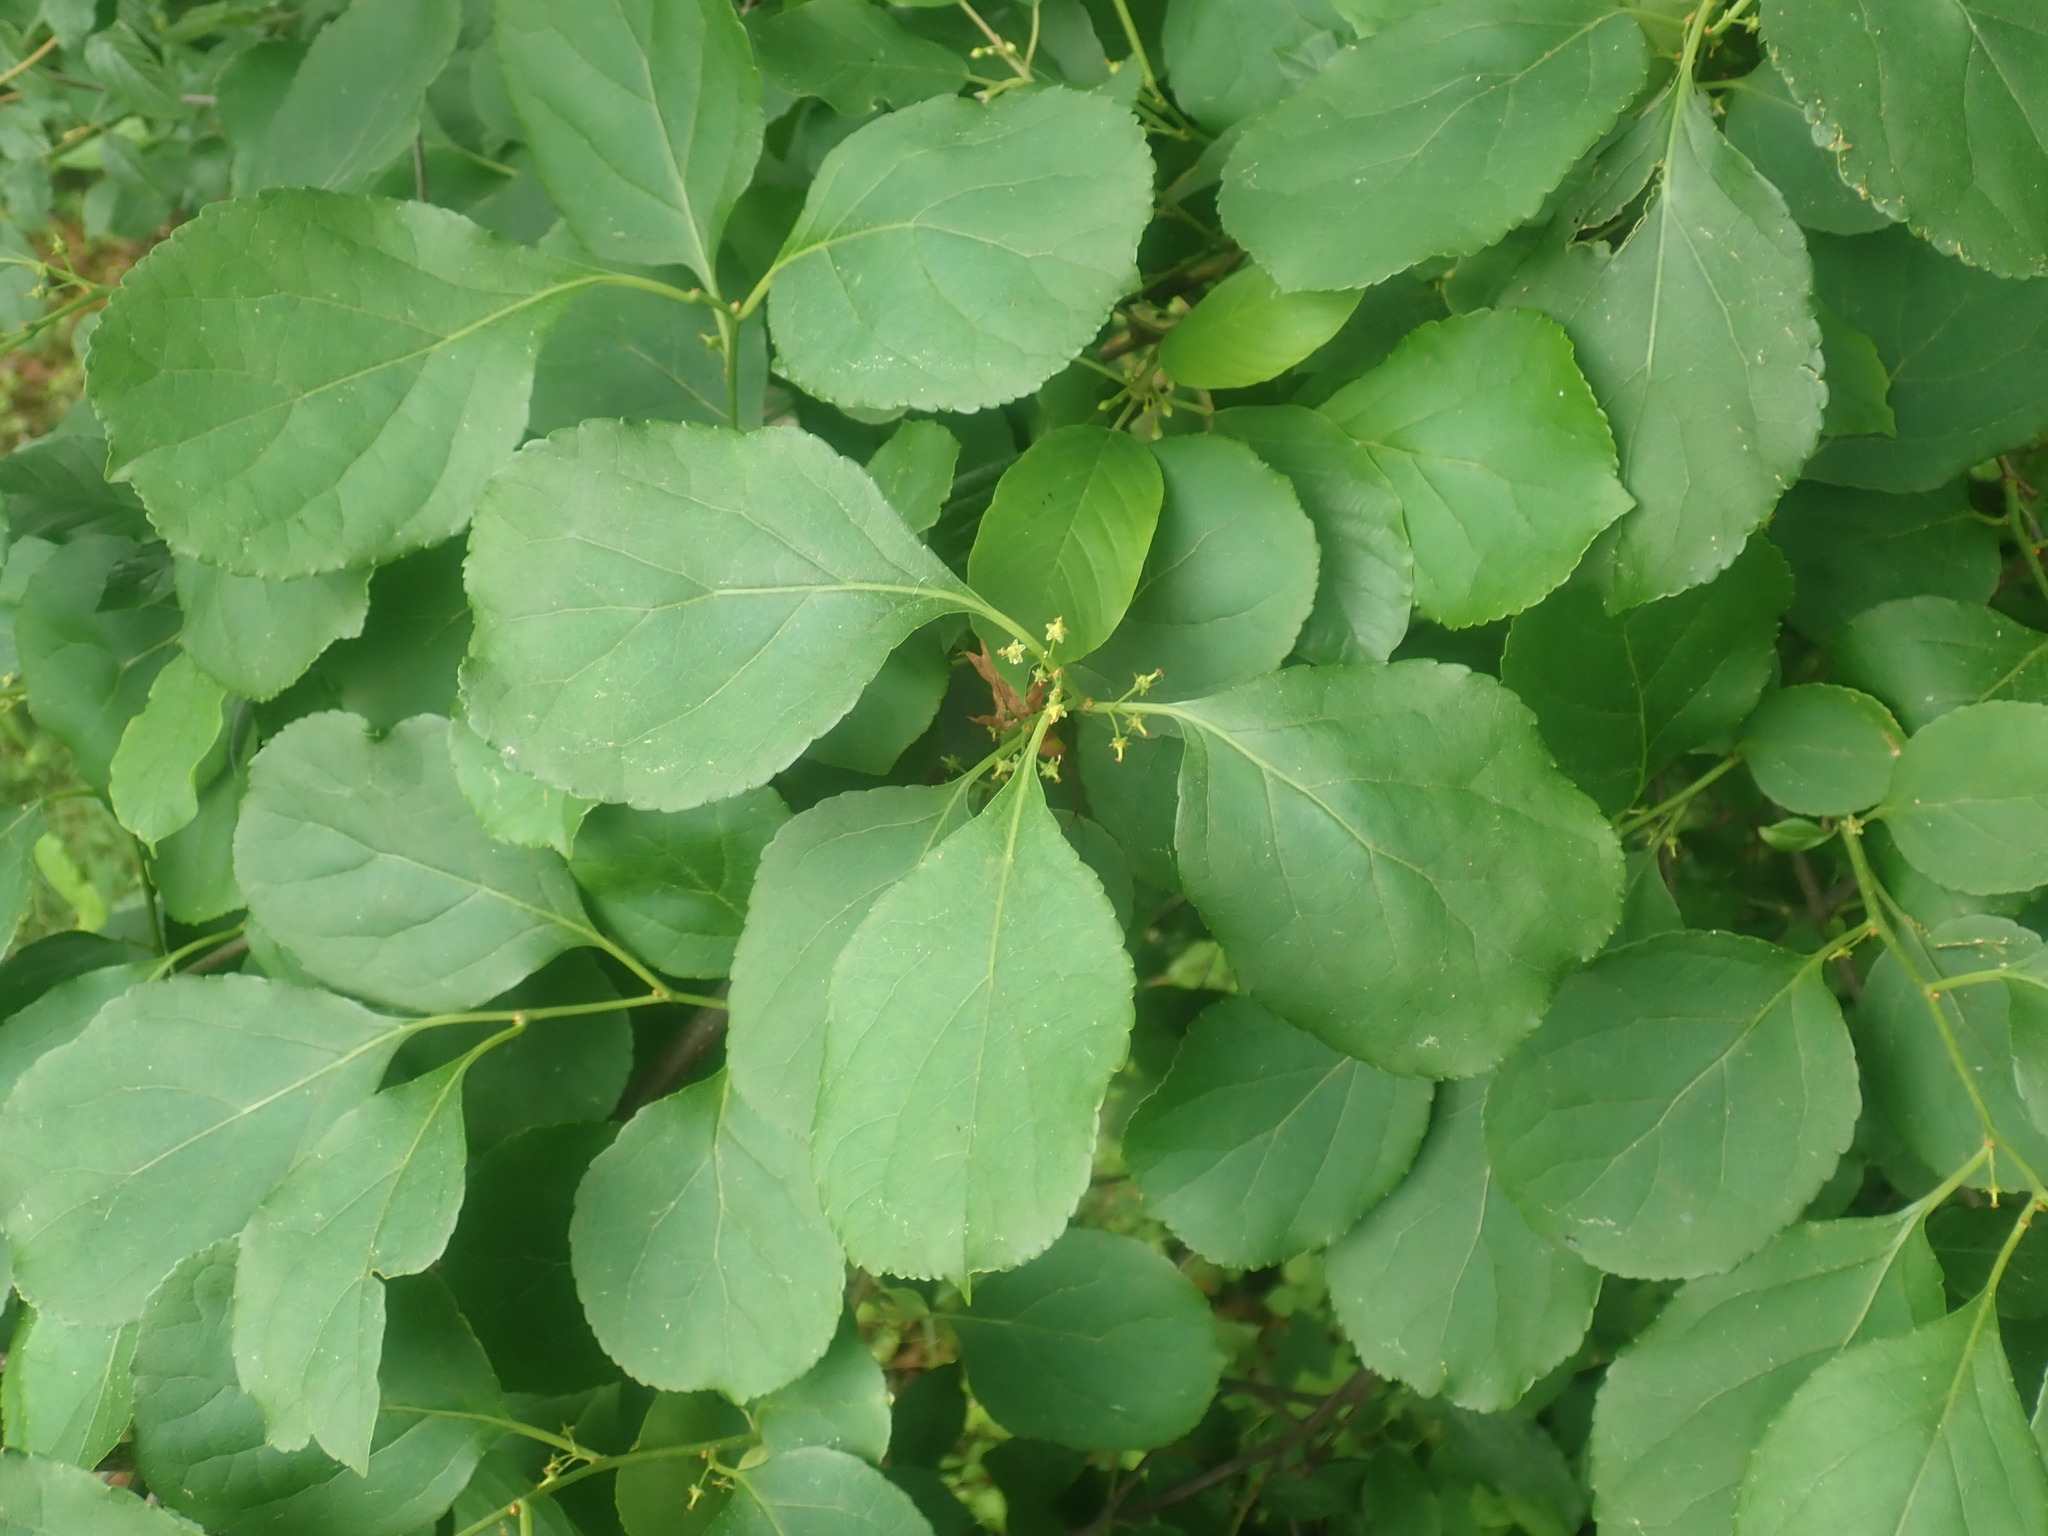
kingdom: Plantae
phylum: Tracheophyta
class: Magnoliopsida
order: Celastrales
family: Celastraceae
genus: Celastrus
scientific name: Celastrus orbiculatus
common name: Oriental bittersweet
